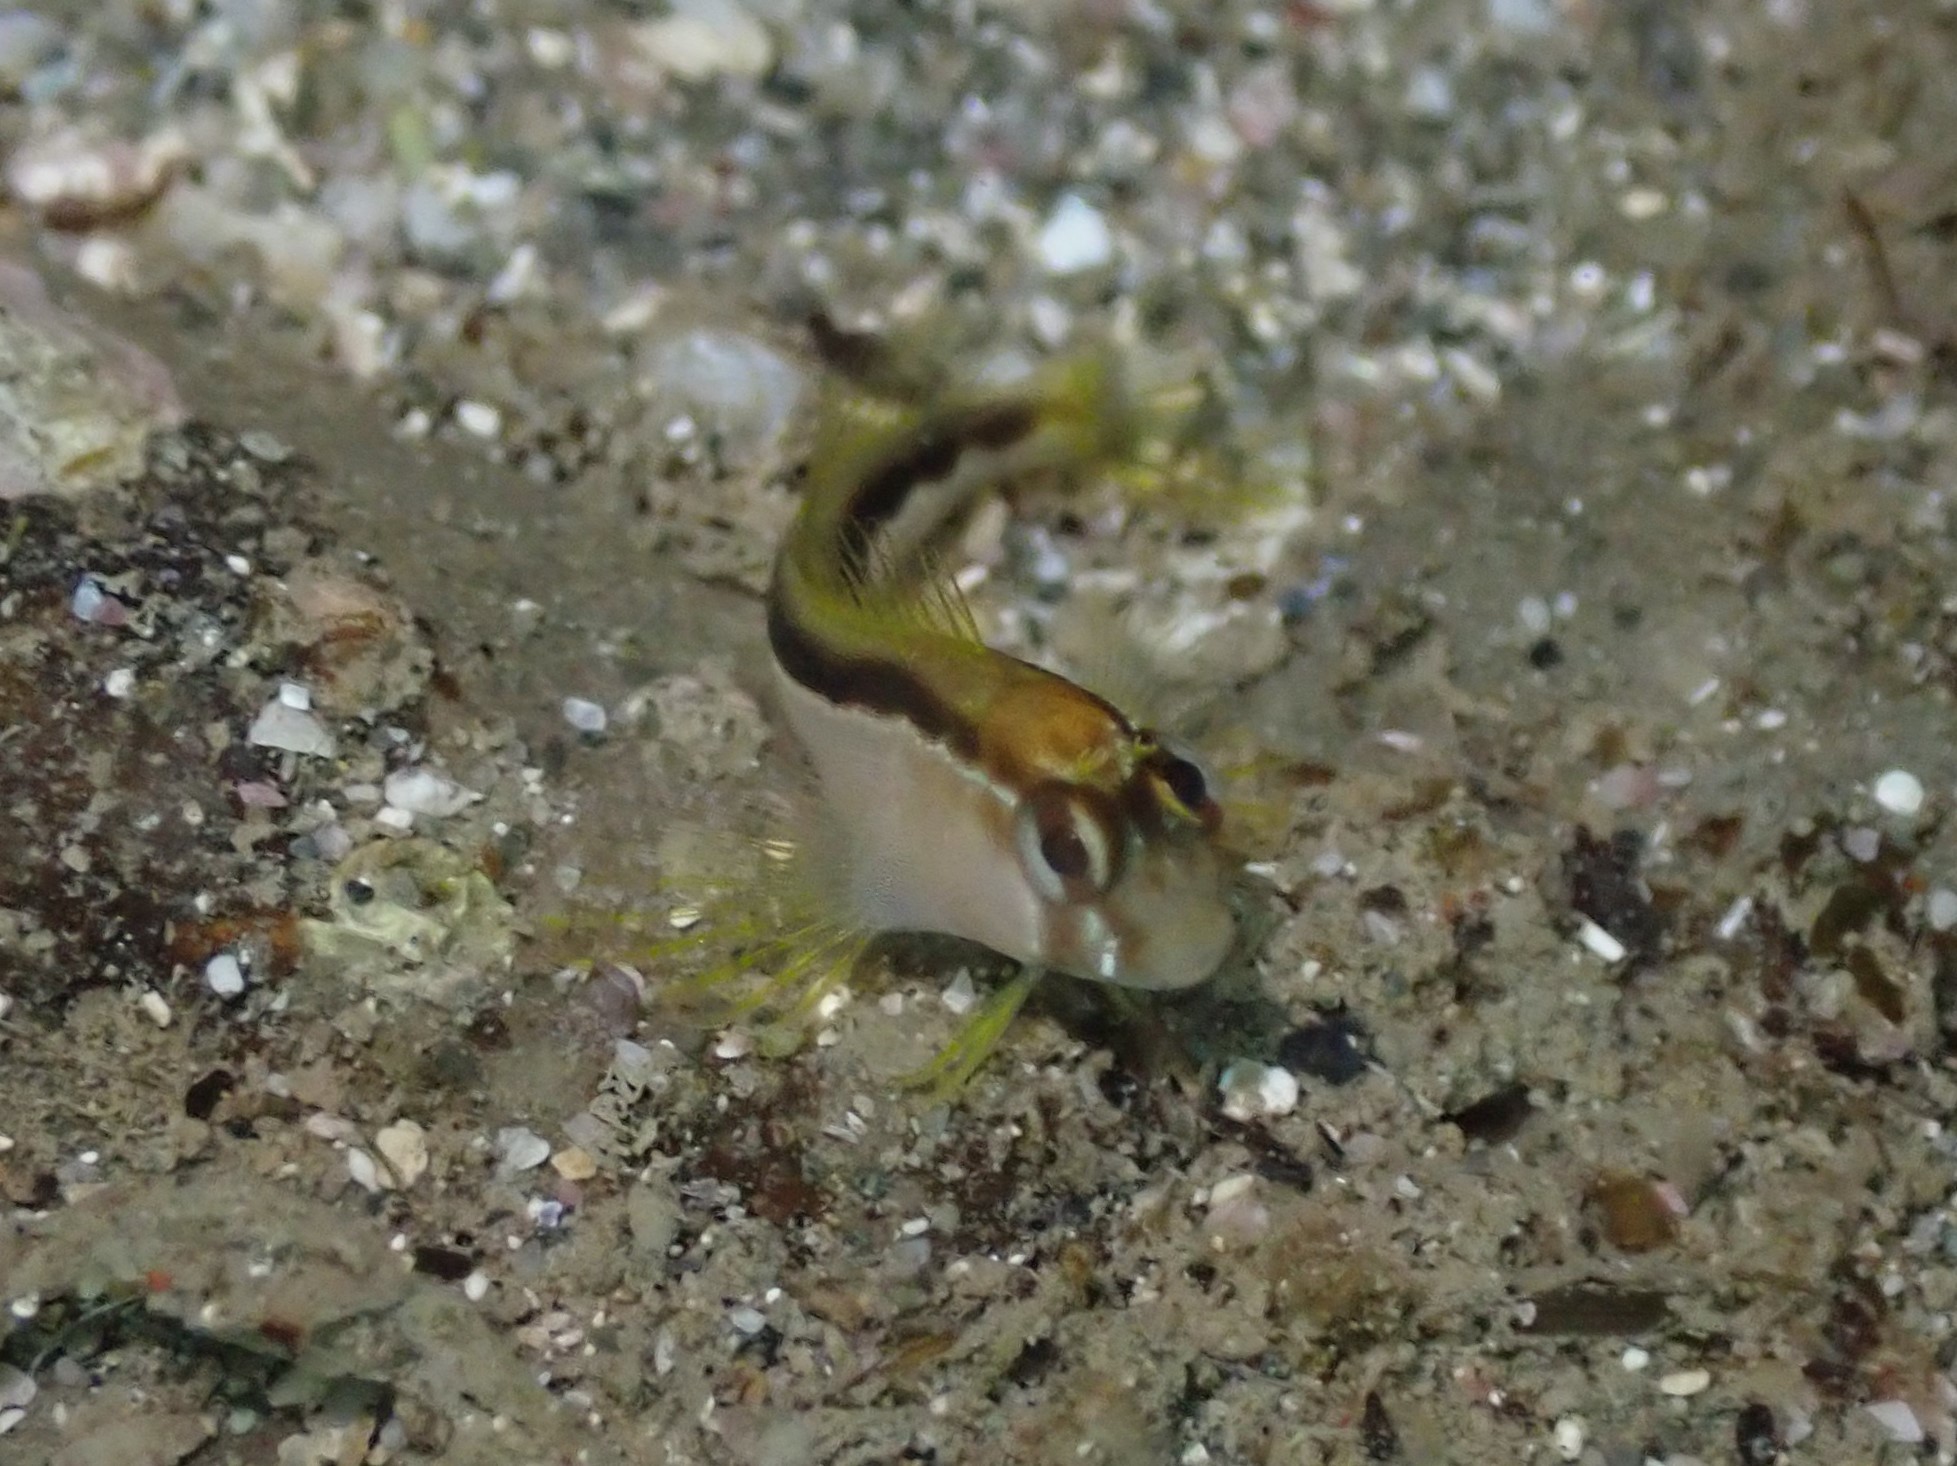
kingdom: Animalia
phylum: Chordata
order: Perciformes
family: Blenniidae
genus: Parablennius
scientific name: Parablennius laticlavius
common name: Crested blenny
